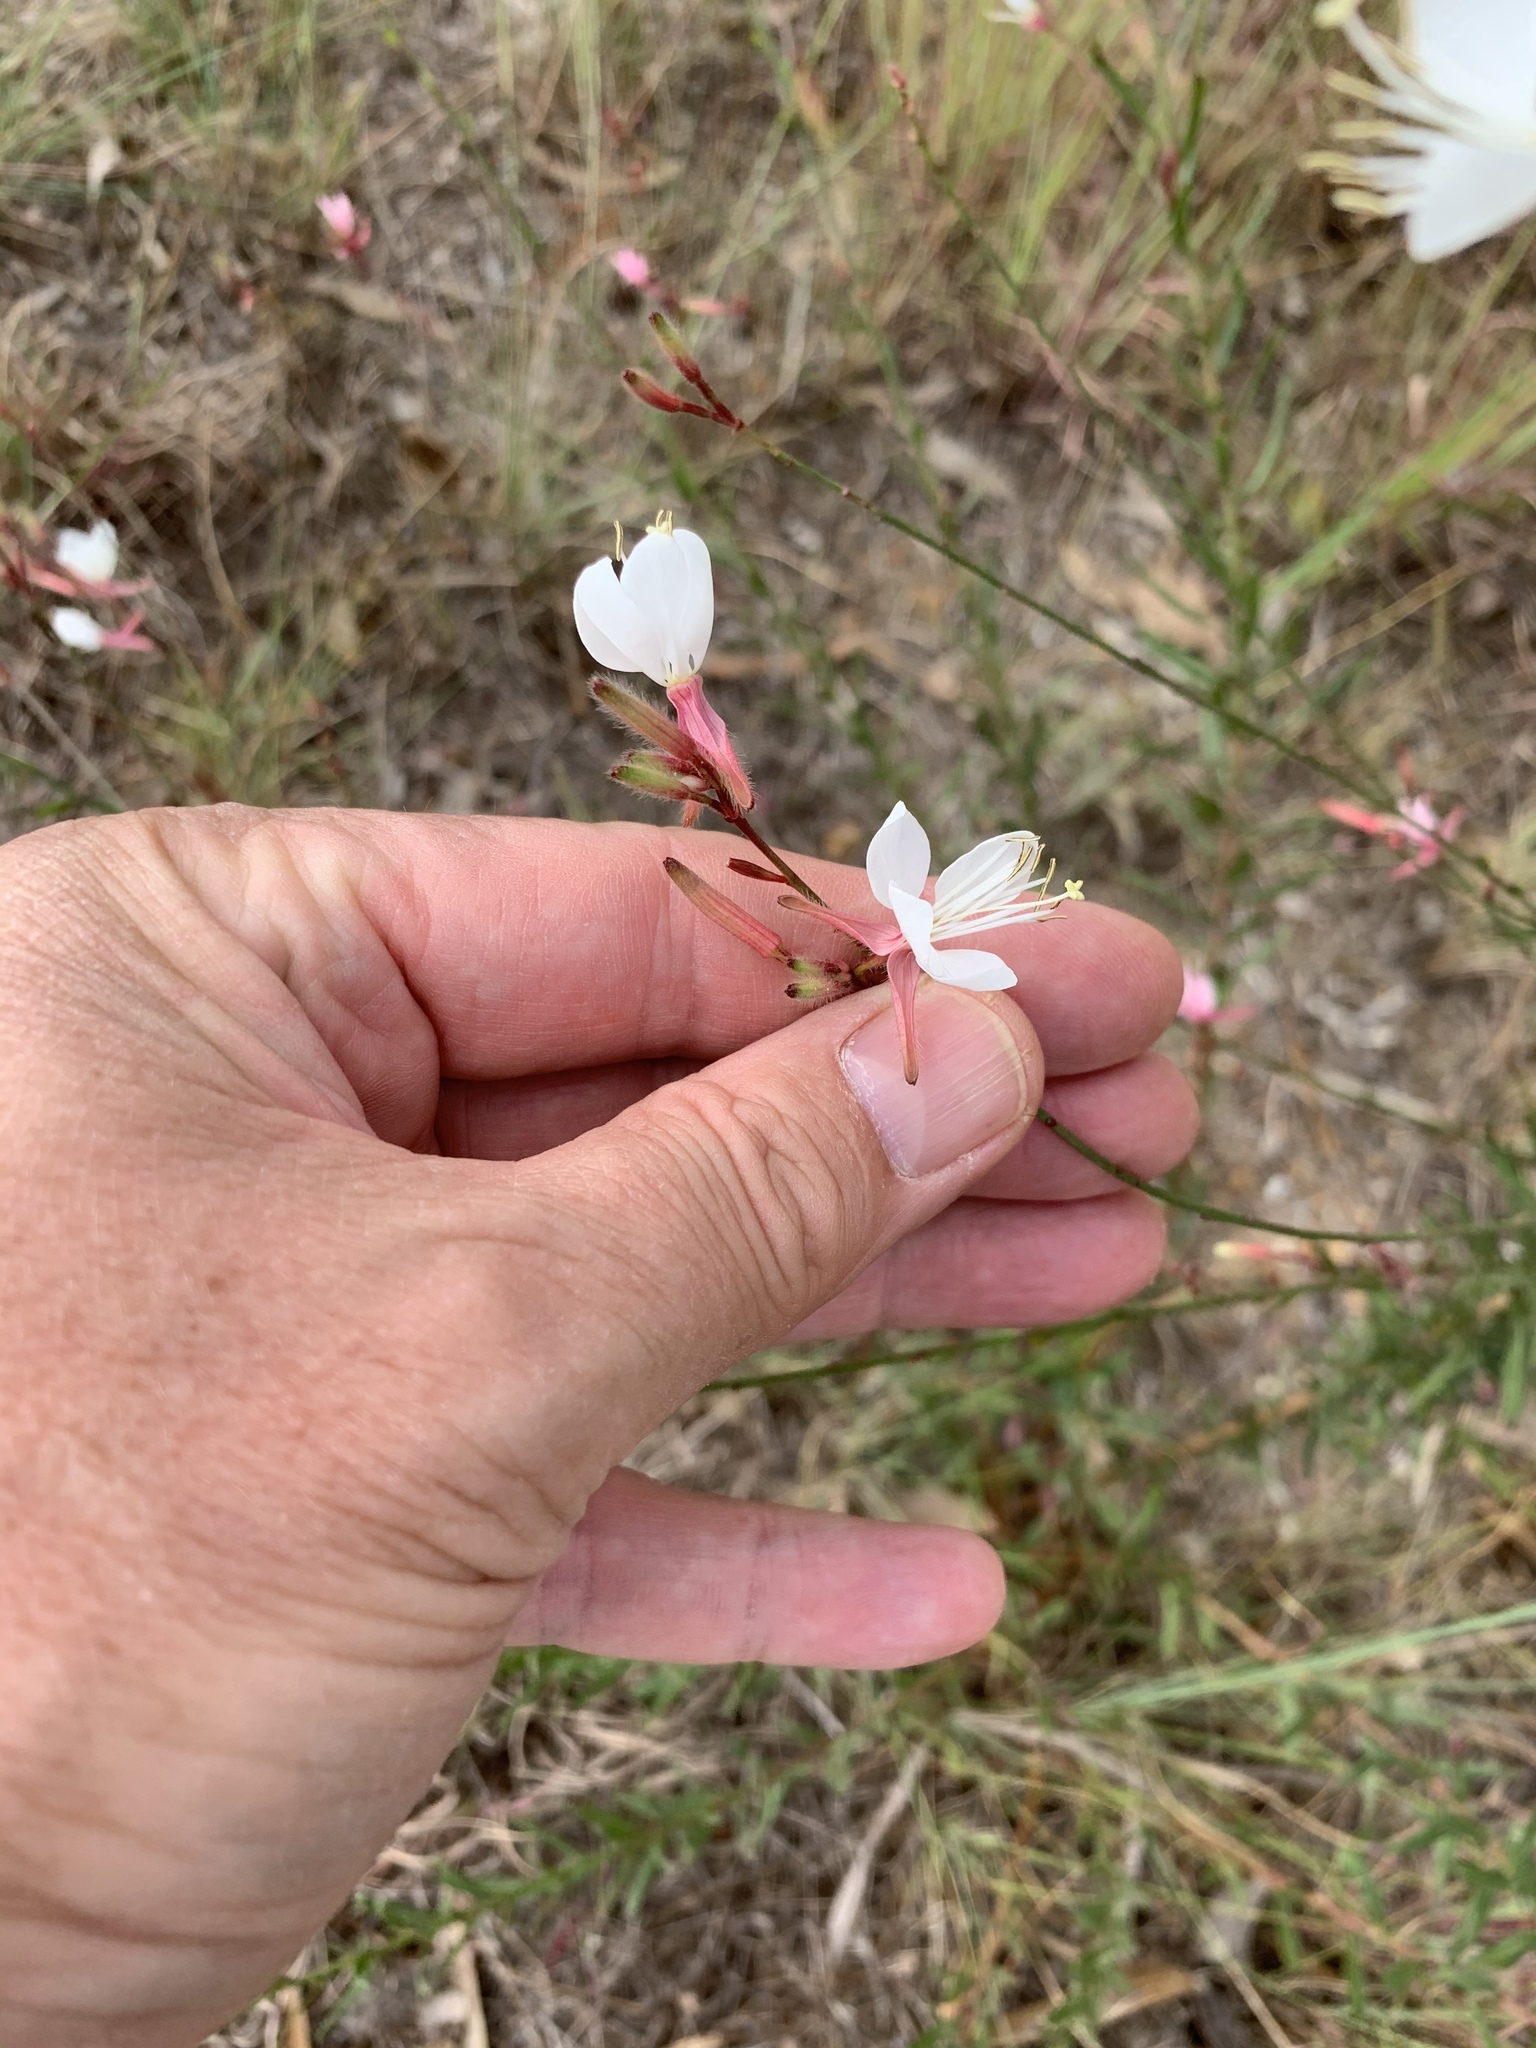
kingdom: Plantae
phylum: Tracheophyta
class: Magnoliopsida
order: Myrtales
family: Onagraceae
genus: Oenothera
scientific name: Oenothera lindheimeri
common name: Lindheimer's beeblossom
